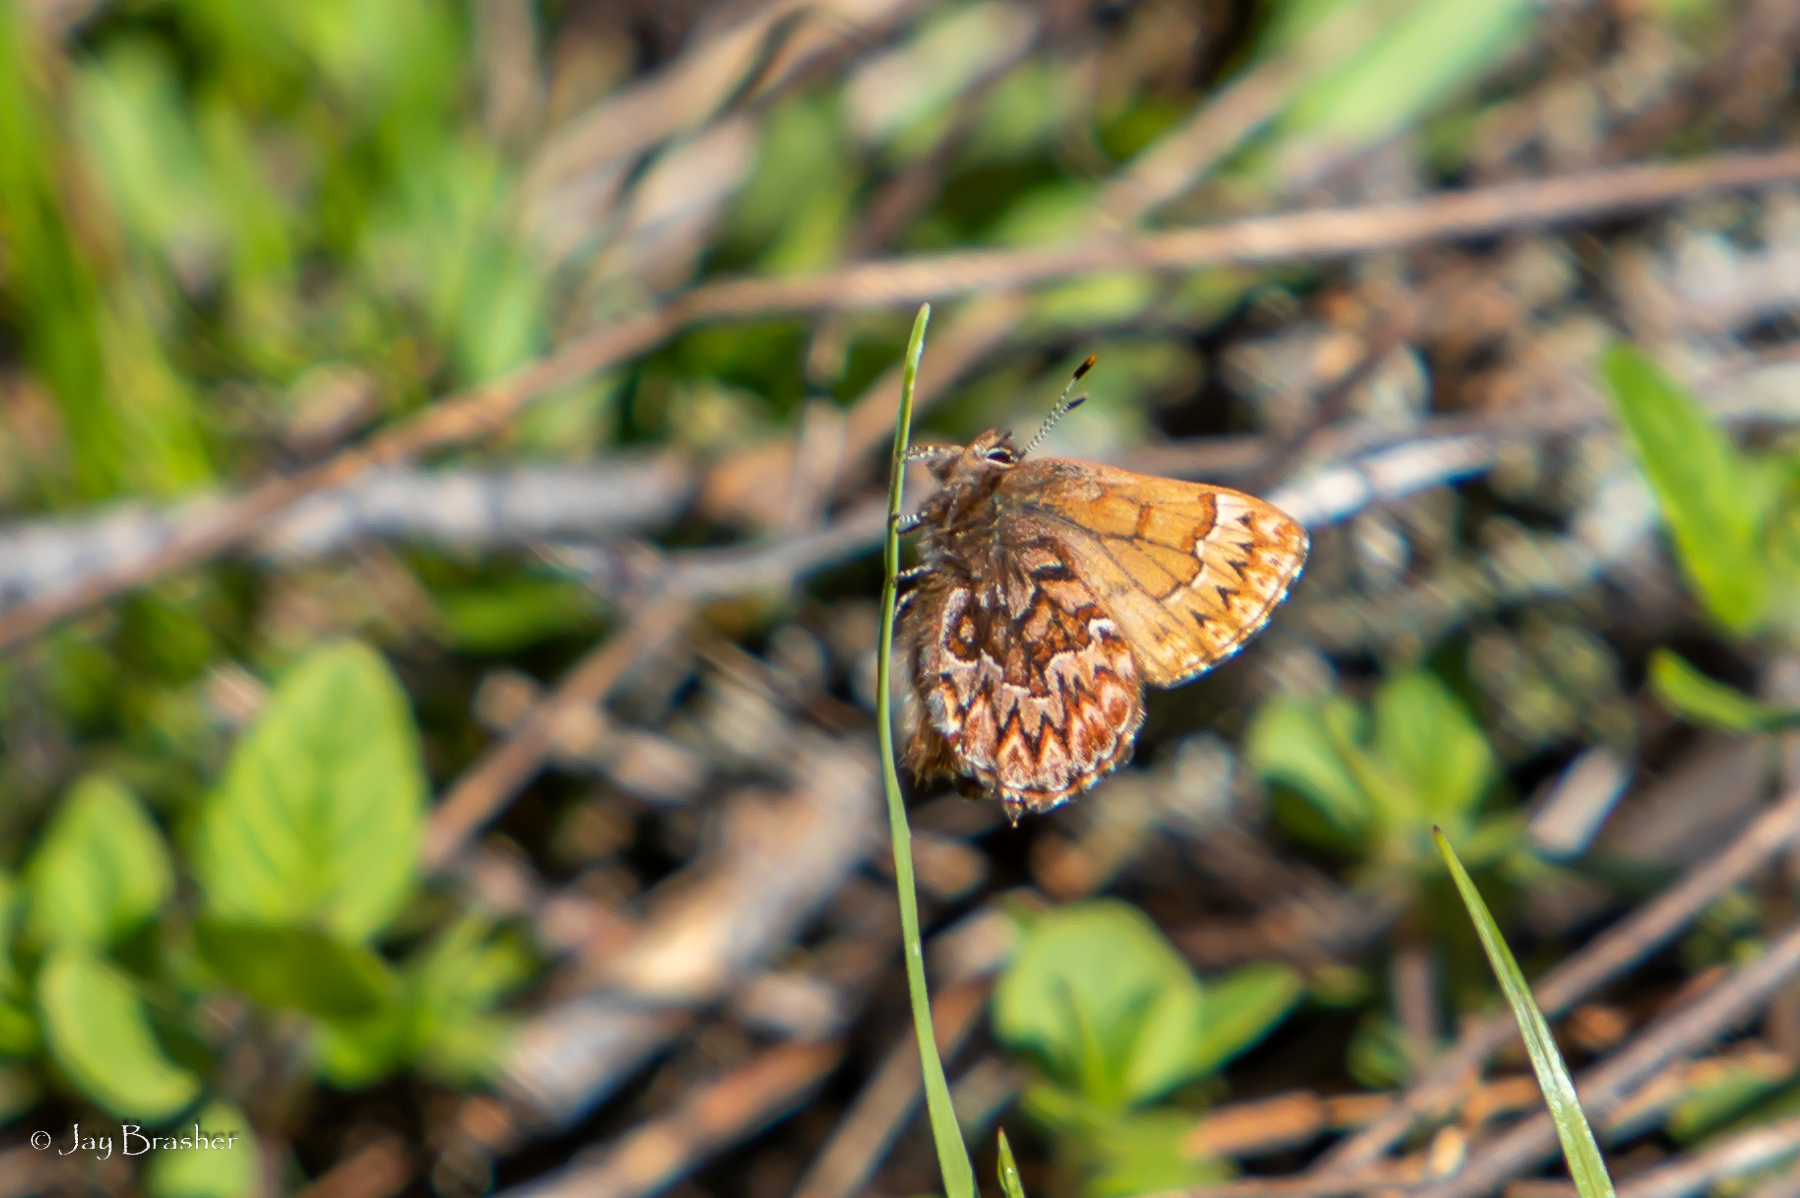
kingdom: Animalia
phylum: Arthropoda
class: Insecta
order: Lepidoptera
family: Lycaenidae
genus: Incisalia
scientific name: Incisalia eryphon
